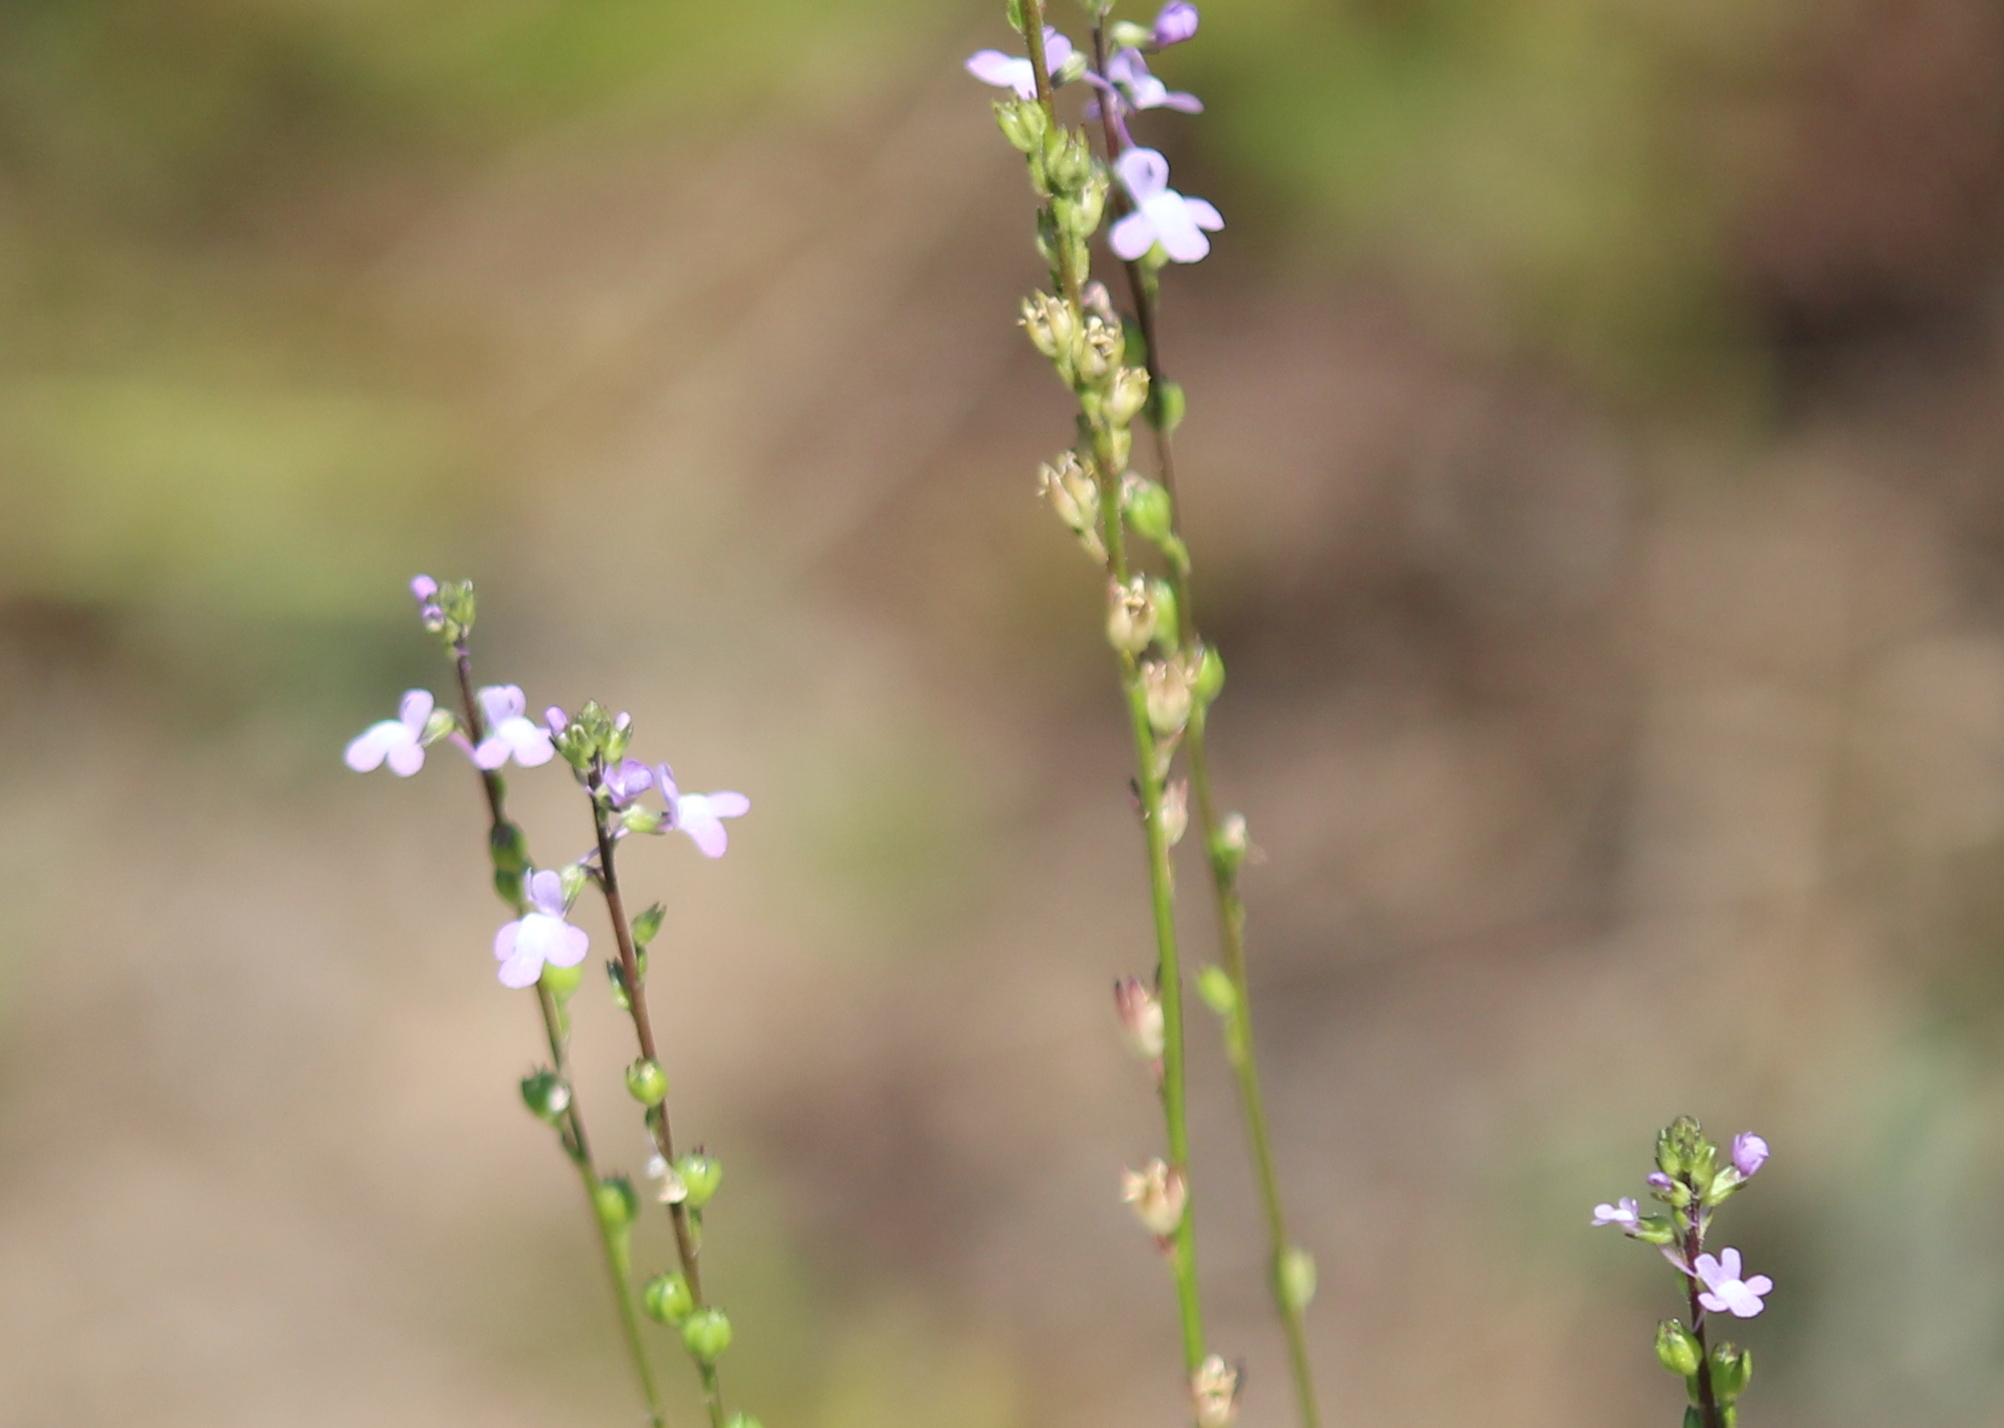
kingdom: Plantae
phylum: Tracheophyta
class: Magnoliopsida
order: Lamiales
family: Plantaginaceae
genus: Nuttallanthus
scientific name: Nuttallanthus canadensis
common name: Blue toadflax
